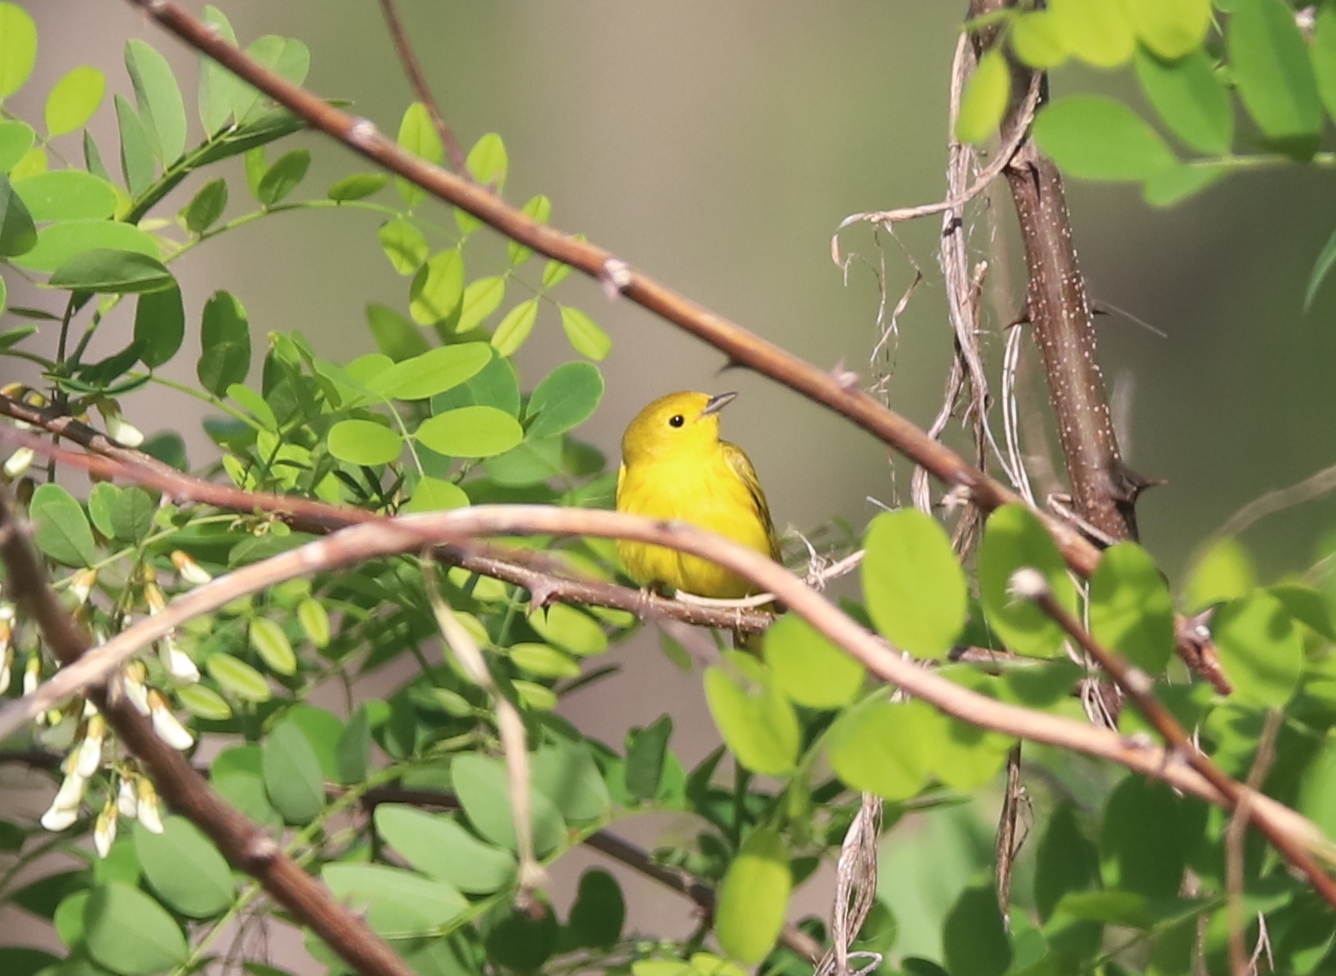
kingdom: Animalia
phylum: Chordata
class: Aves
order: Passeriformes
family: Parulidae
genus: Setophaga
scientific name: Setophaga petechia
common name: Yellow warbler
